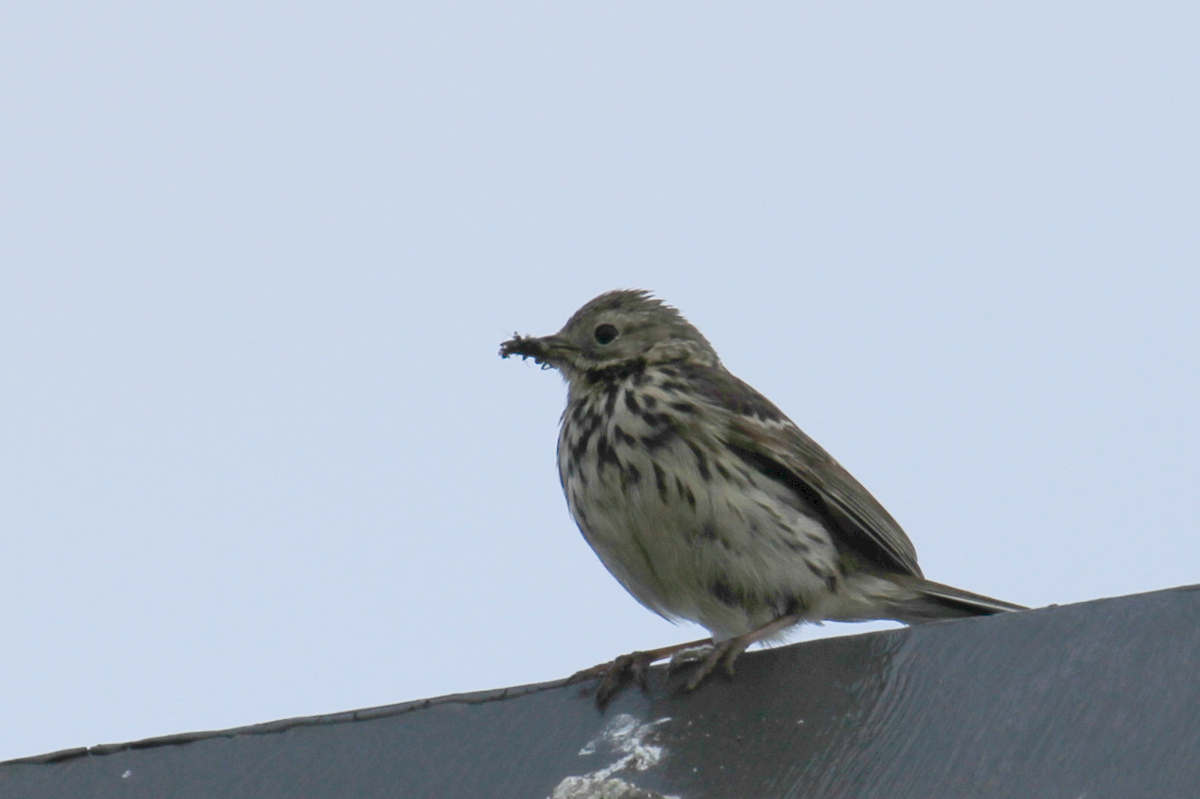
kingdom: Animalia
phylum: Chordata
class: Aves
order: Passeriformes
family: Motacillidae
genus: Anthus
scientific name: Anthus pratensis
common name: Meadow pipit
